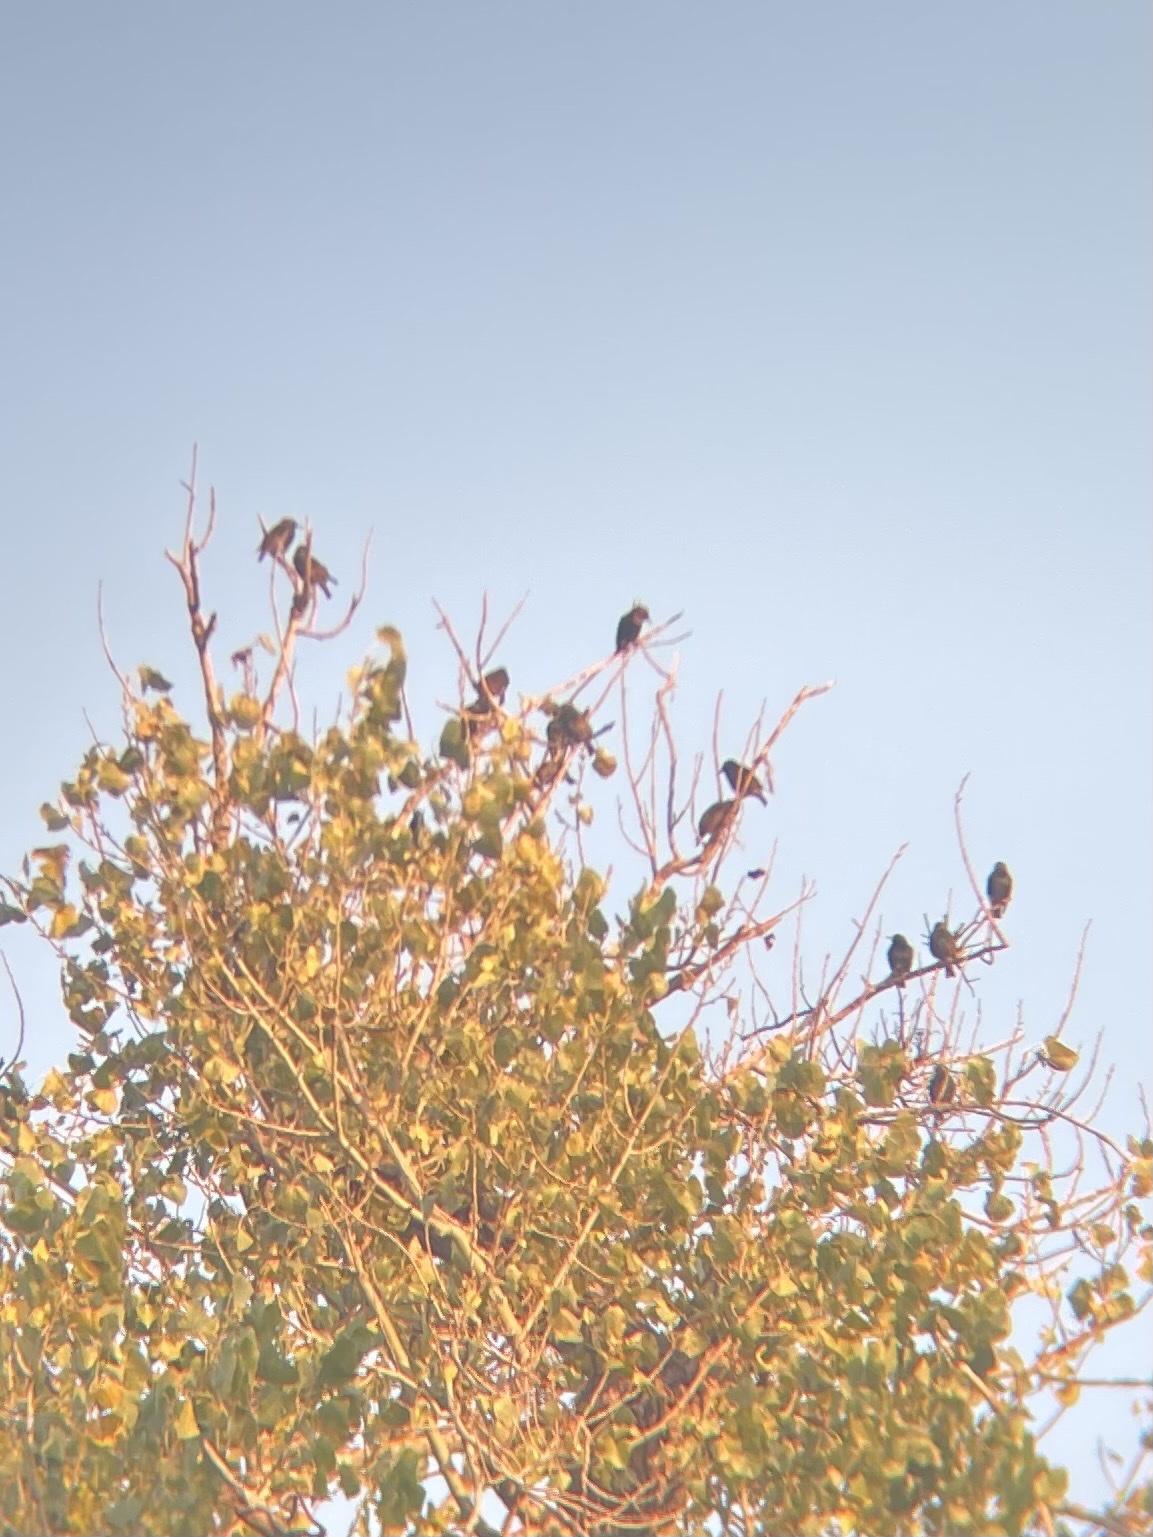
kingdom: Animalia
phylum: Chordata
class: Aves
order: Passeriformes
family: Sturnidae
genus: Sturnus
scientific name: Sturnus vulgaris
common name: Common starling
